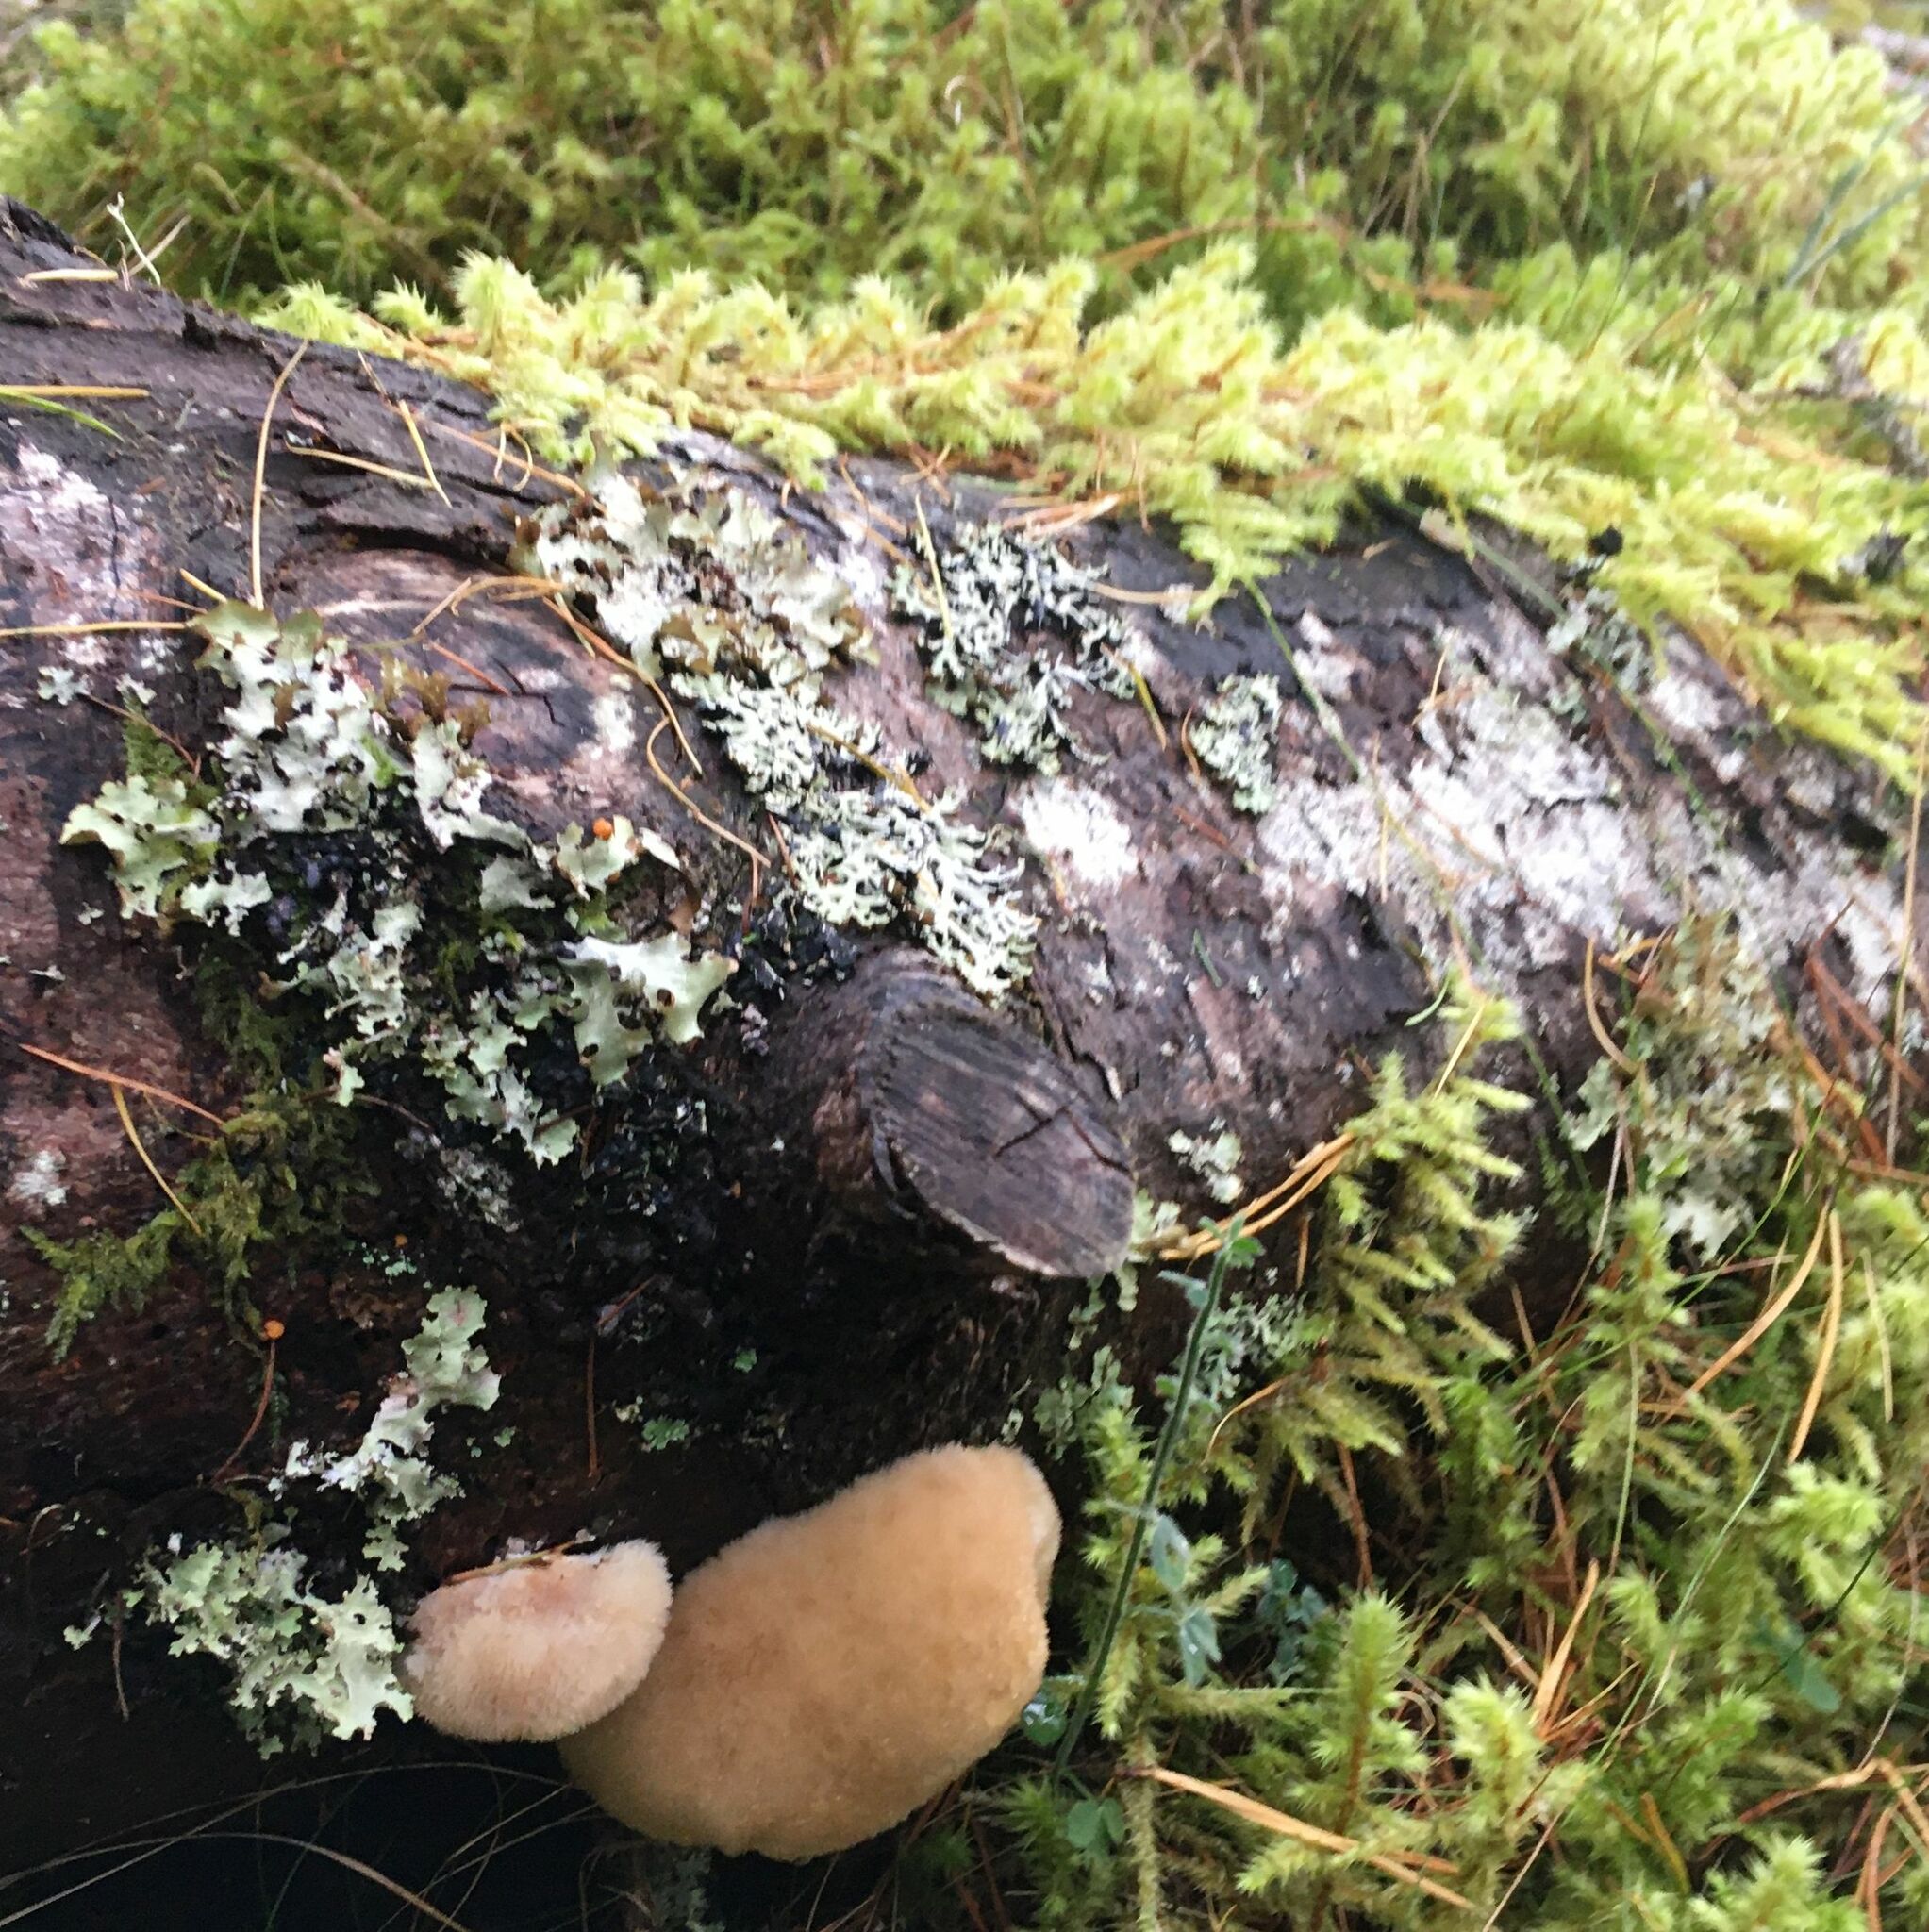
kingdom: Fungi
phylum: Basidiomycota
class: Agaricomycetes
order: Polyporales
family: Dacryobolaceae
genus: Postia
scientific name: Postia ptychogaster
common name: Powderpuff bracket
